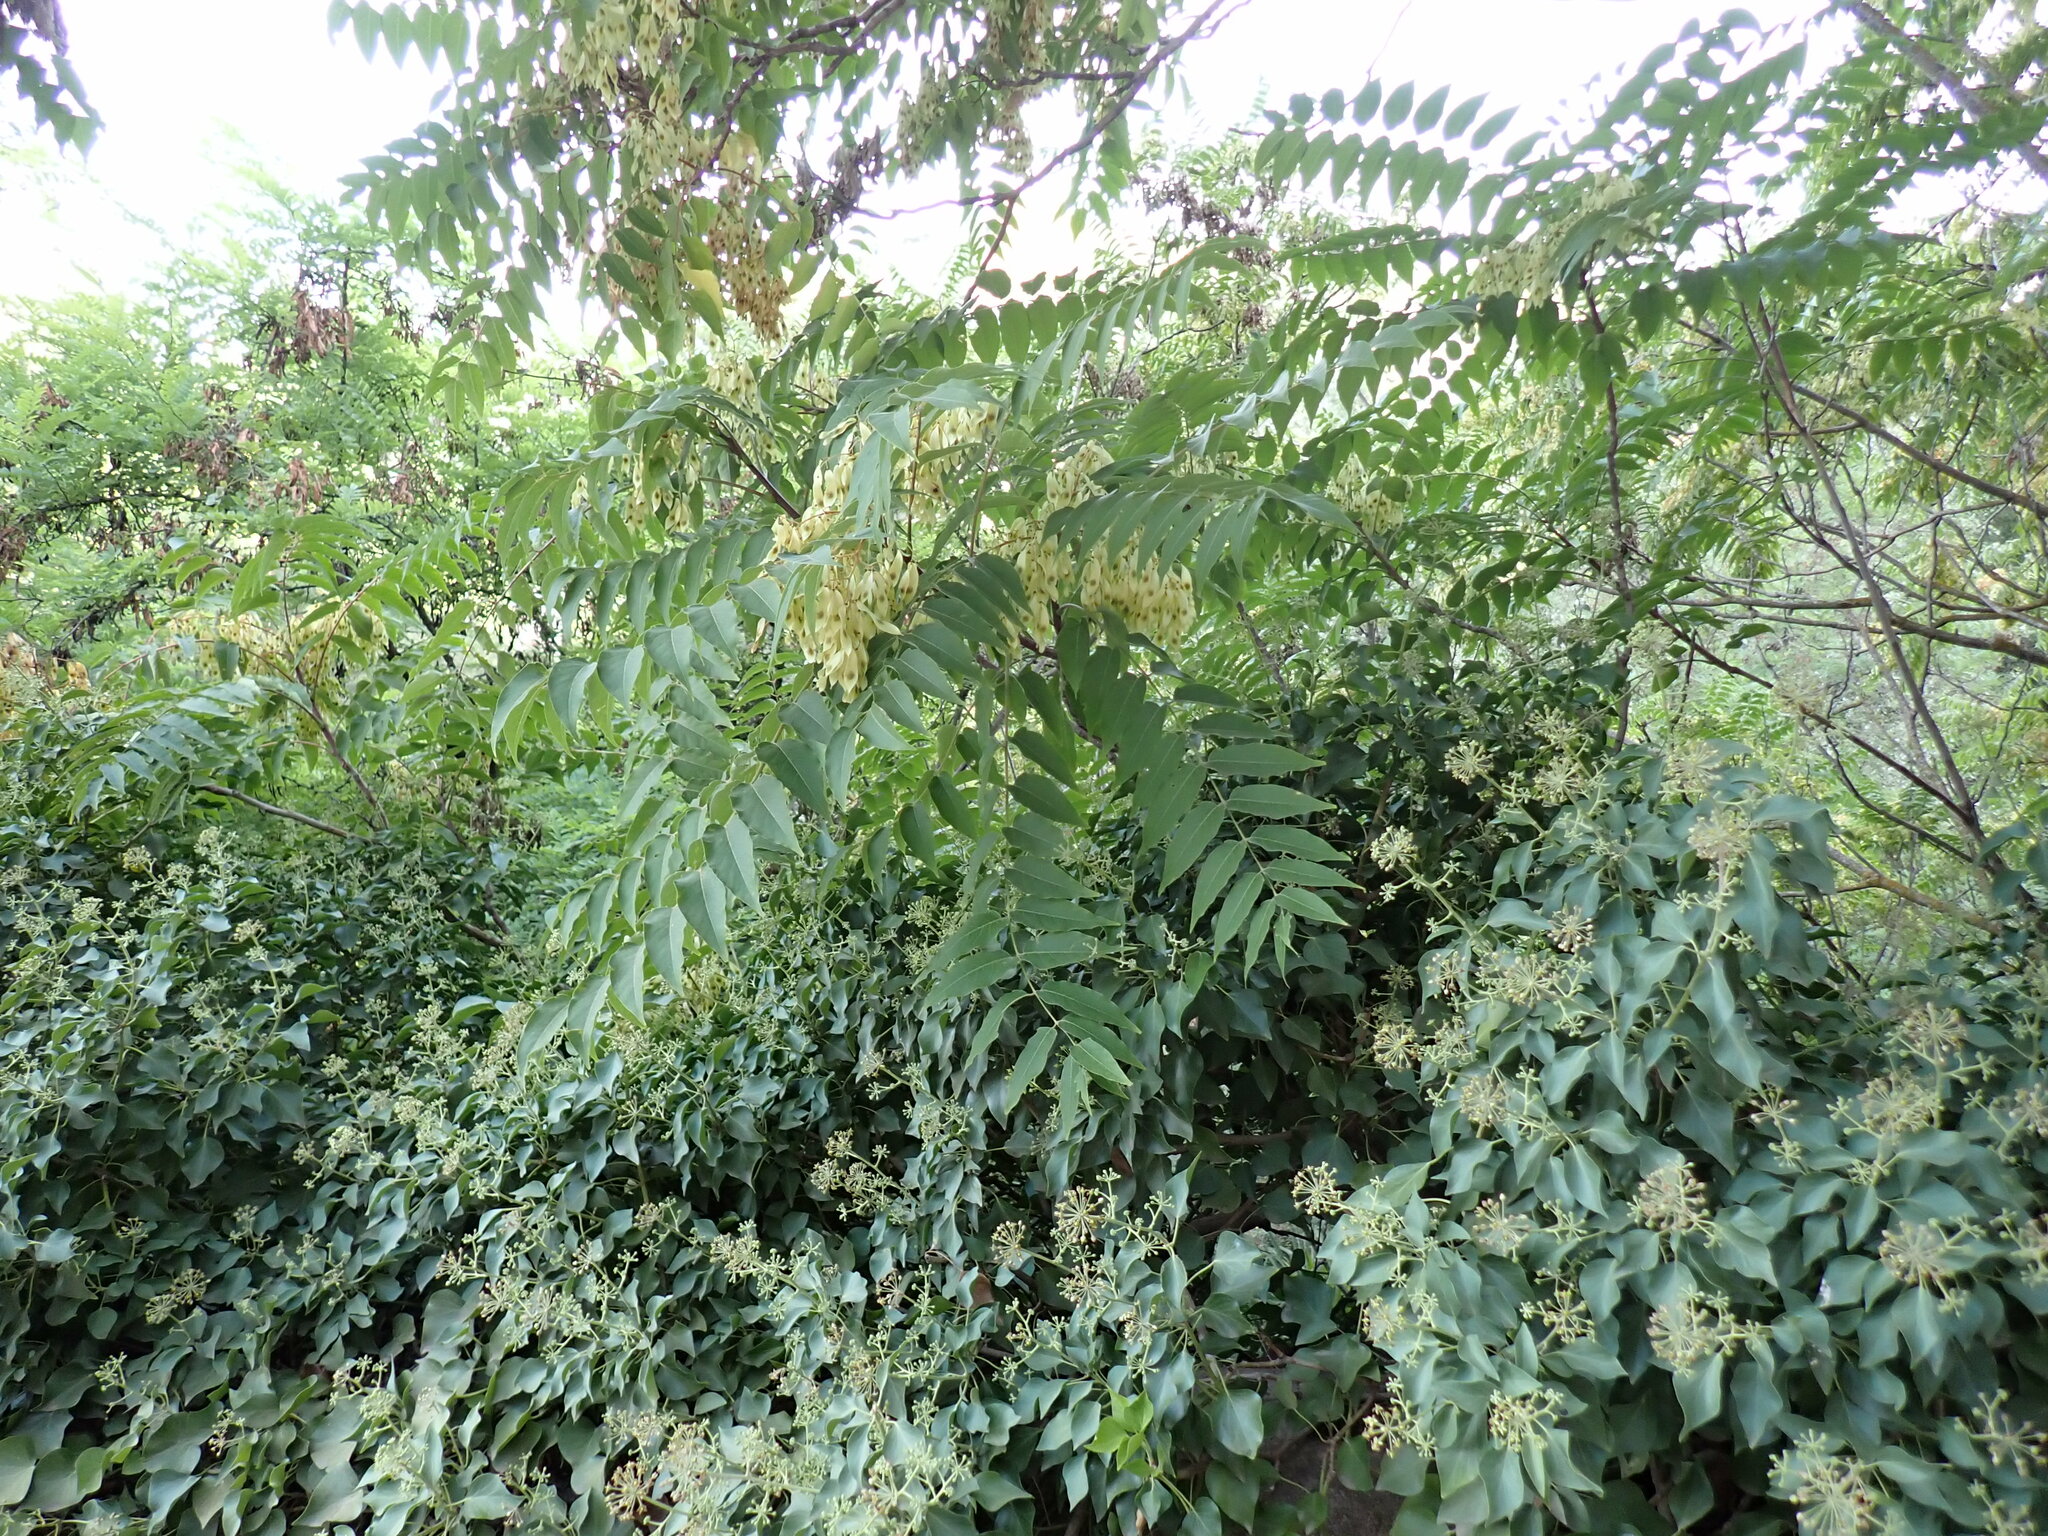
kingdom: Plantae
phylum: Tracheophyta
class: Magnoliopsida
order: Sapindales
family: Simaroubaceae
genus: Ailanthus
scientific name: Ailanthus altissima
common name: Tree-of-heaven
